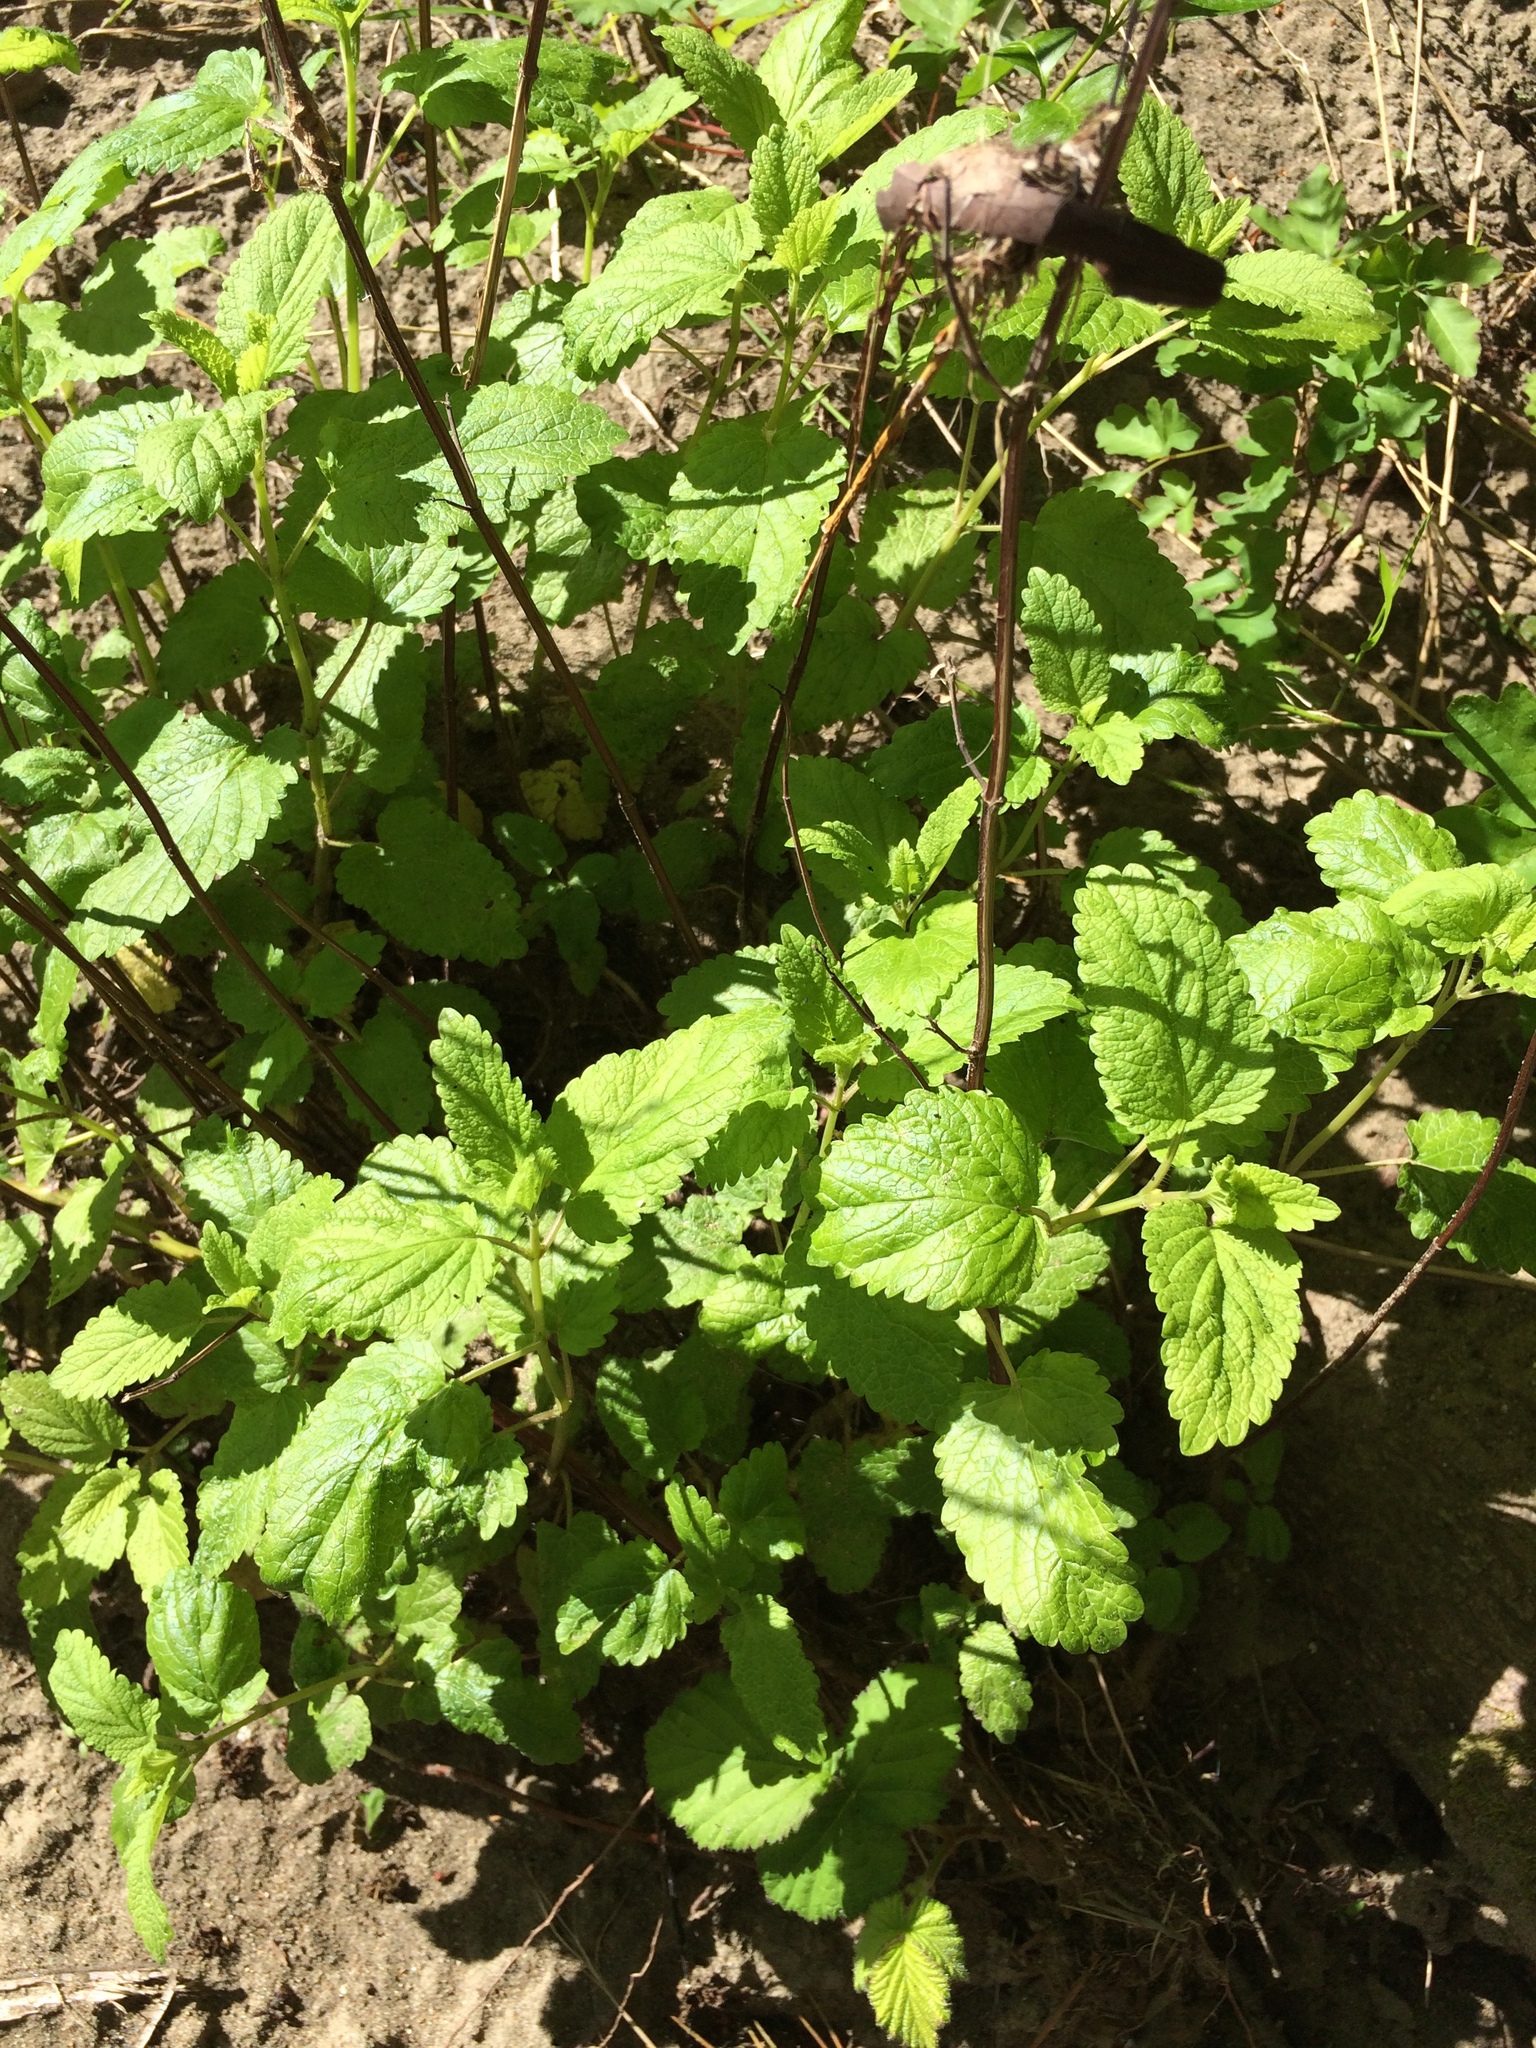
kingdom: Plantae
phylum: Tracheophyta
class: Magnoliopsida
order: Lamiales
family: Lamiaceae
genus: Melissa
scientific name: Melissa officinalis
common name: Balm
